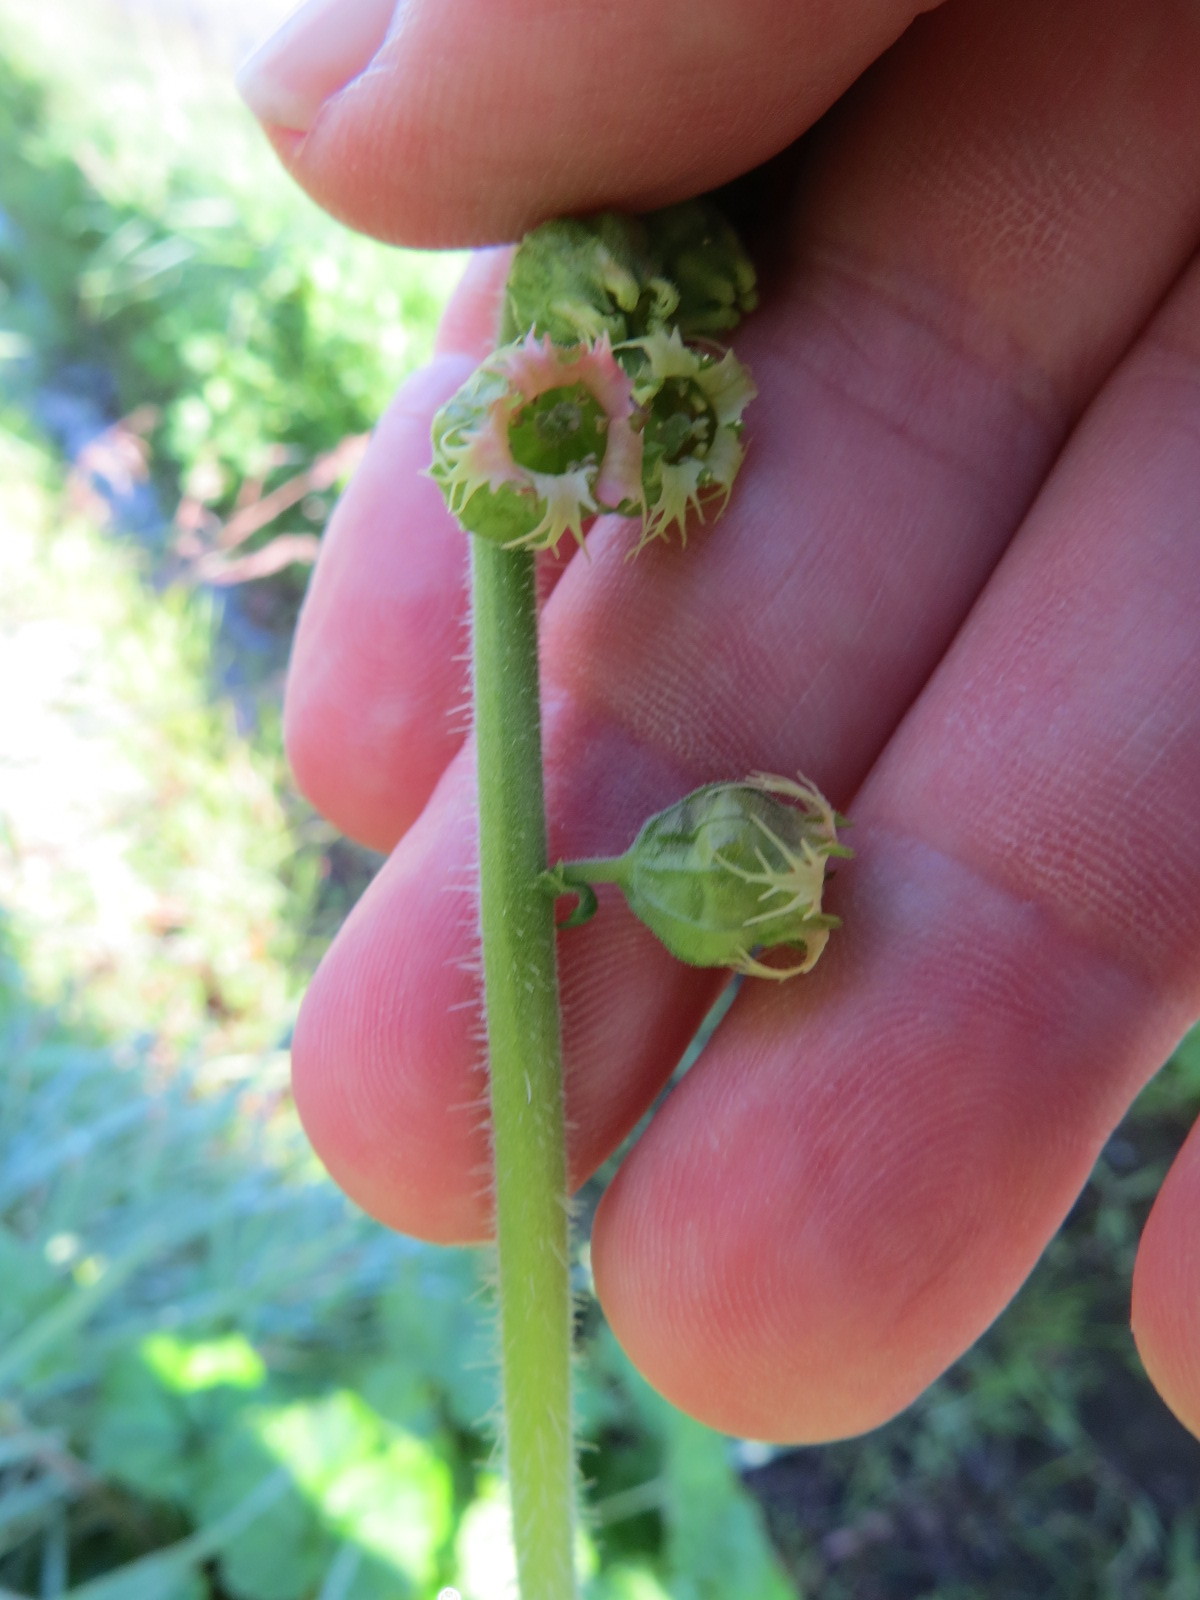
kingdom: Plantae
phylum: Tracheophyta
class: Magnoliopsida
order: Saxifragales
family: Saxifragaceae
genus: Tellima
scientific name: Tellima grandiflora
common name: Fringecups
